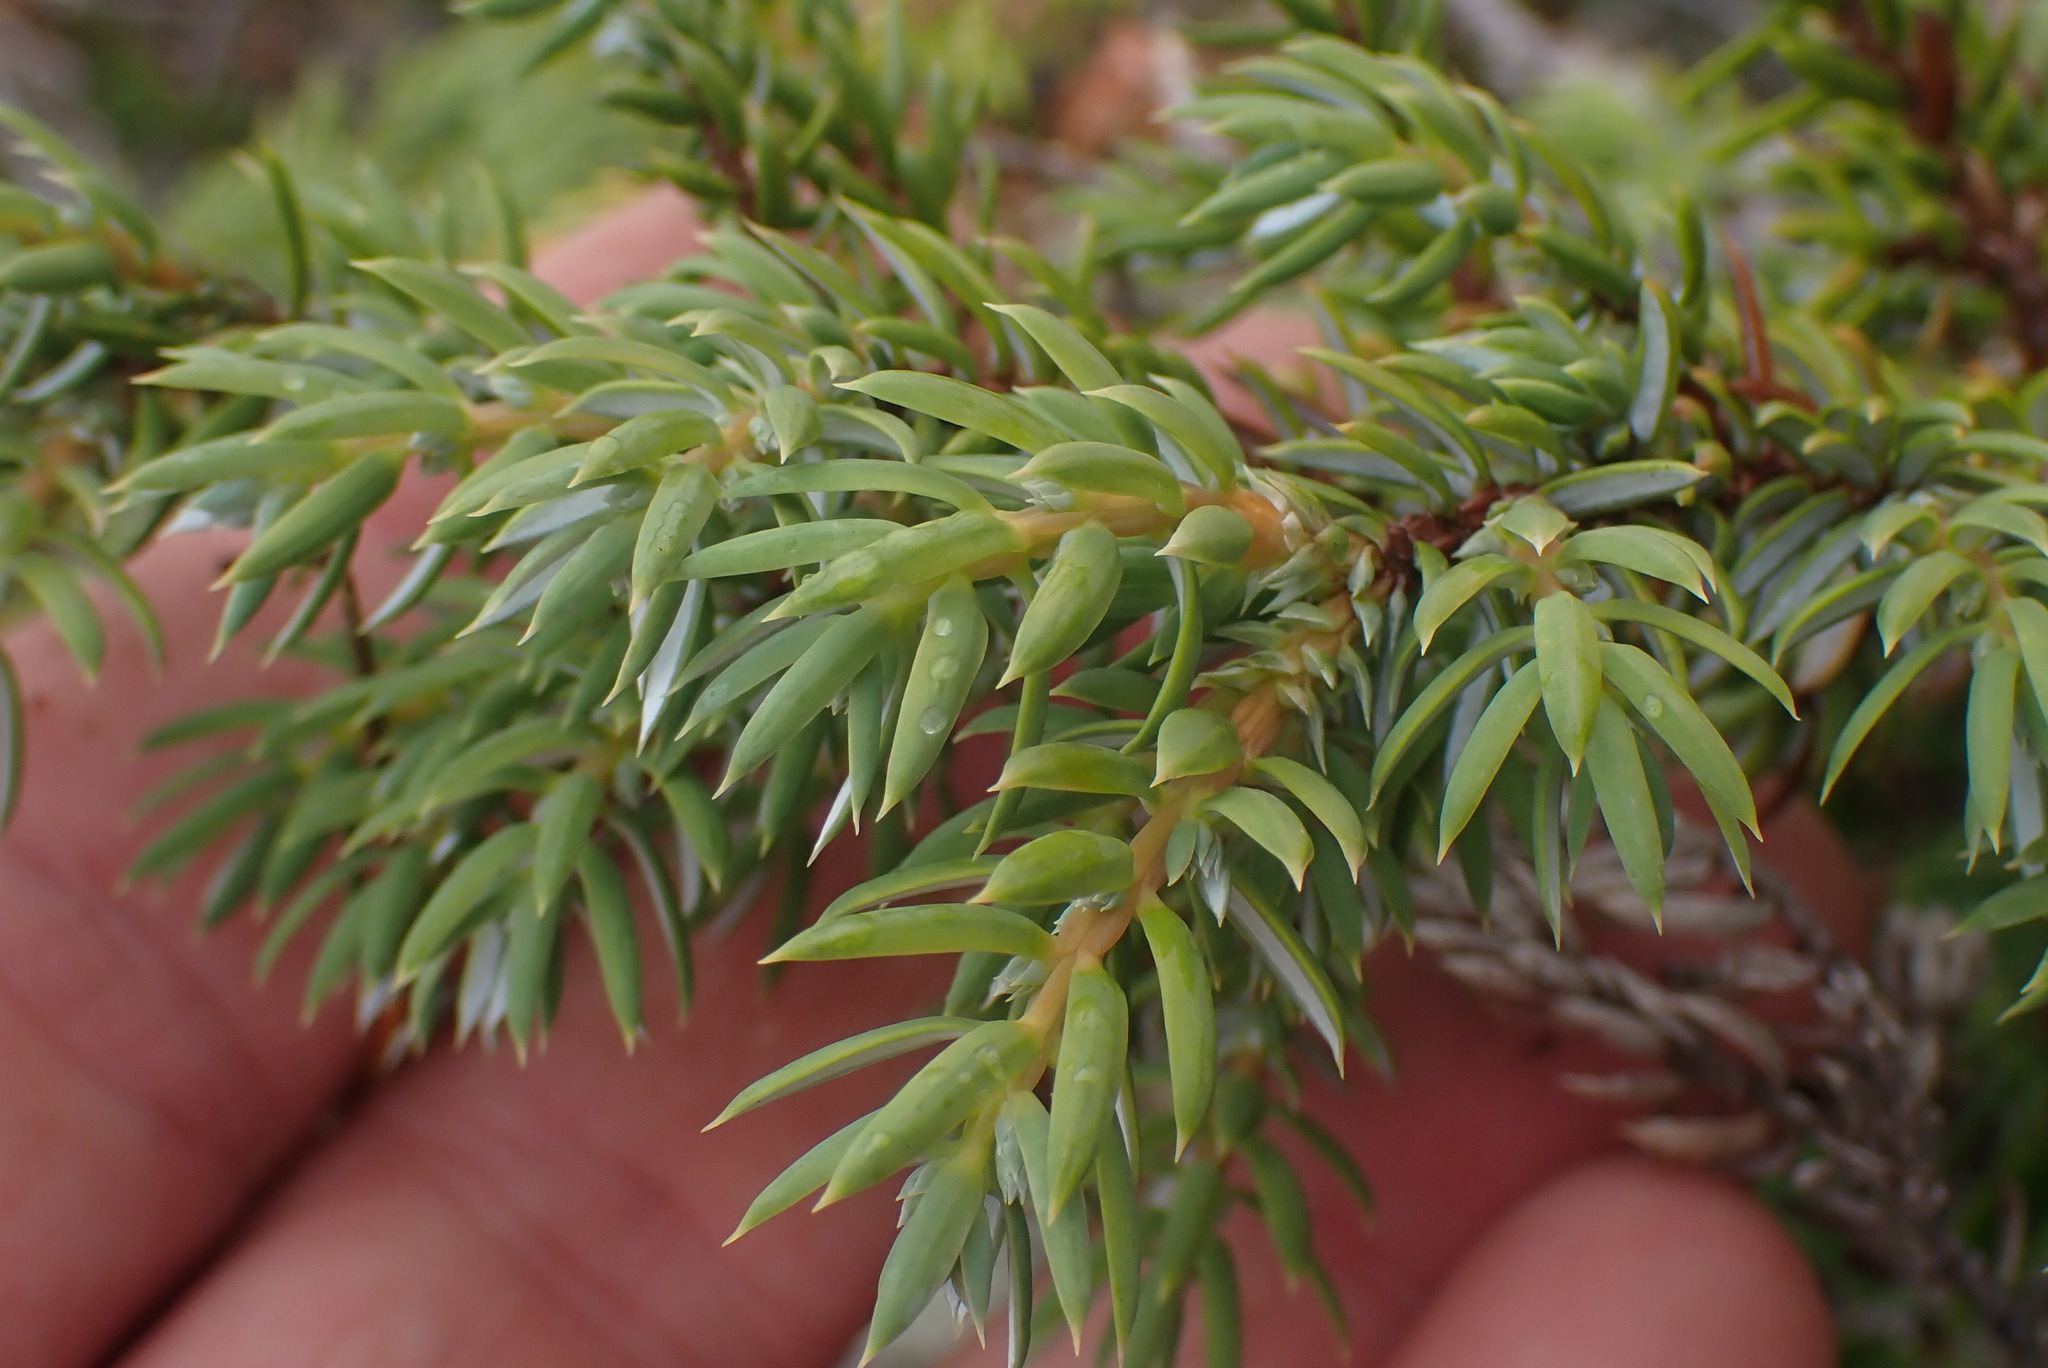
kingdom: Plantae
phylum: Tracheophyta
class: Pinopsida
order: Pinales
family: Cupressaceae
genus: Juniperus
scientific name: Juniperus communis
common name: Common juniper
